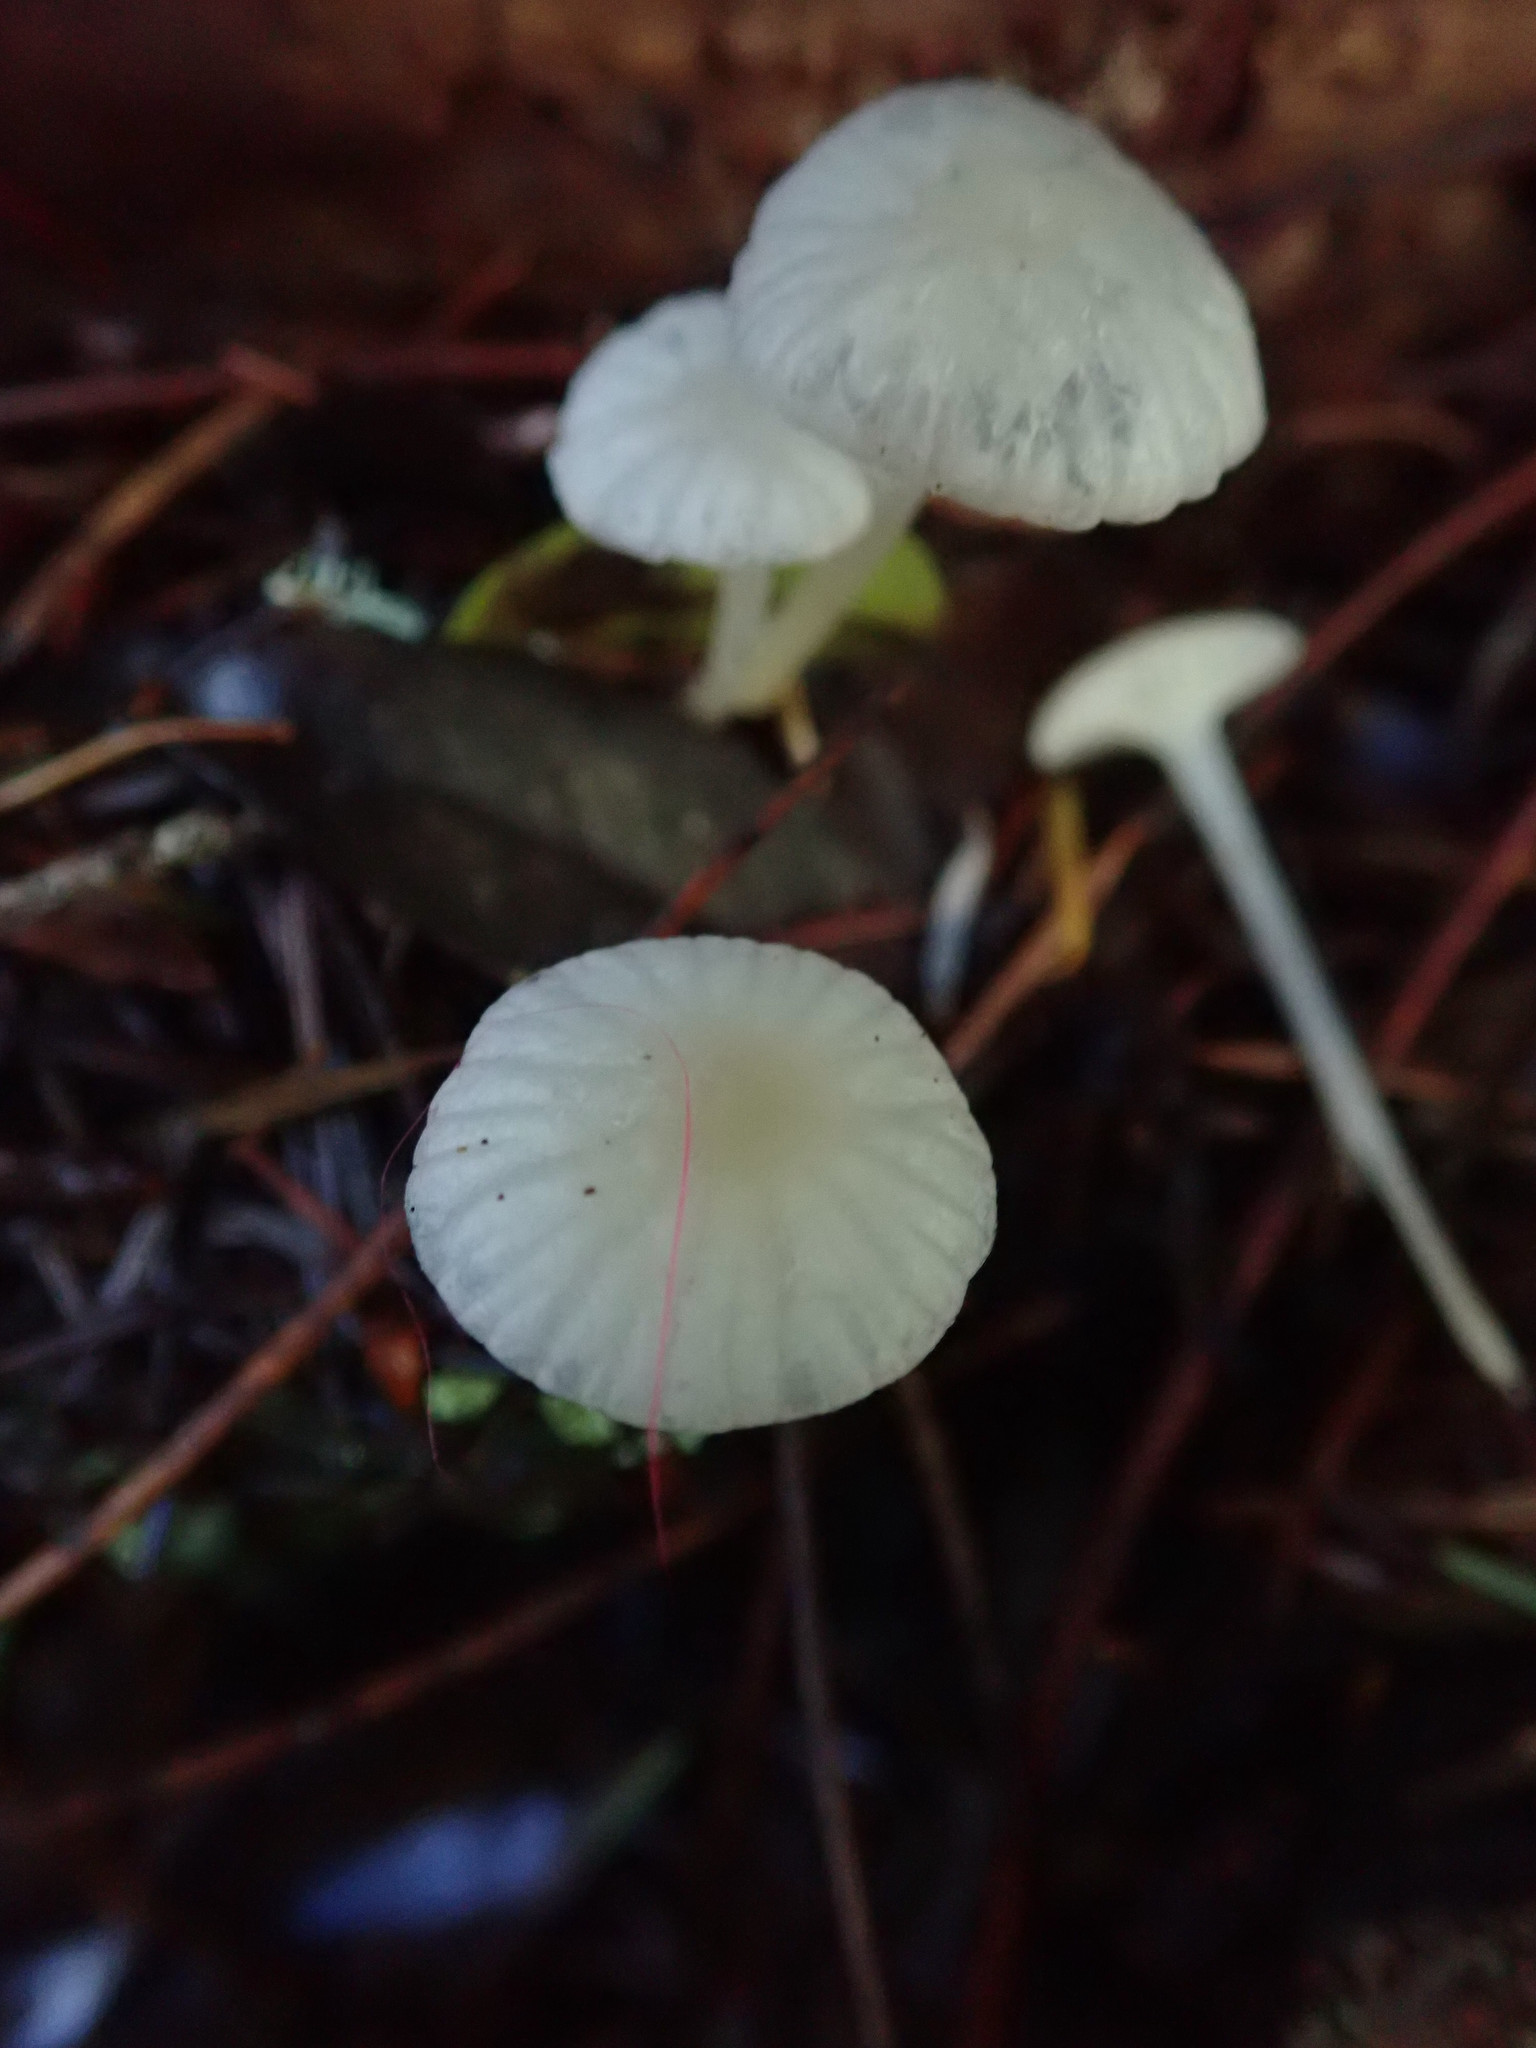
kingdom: Fungi
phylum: Basidiomycota
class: Agaricomycetes
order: Agaricales
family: Marasmiaceae
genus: Marasmius
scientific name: Marasmius calhouniae
